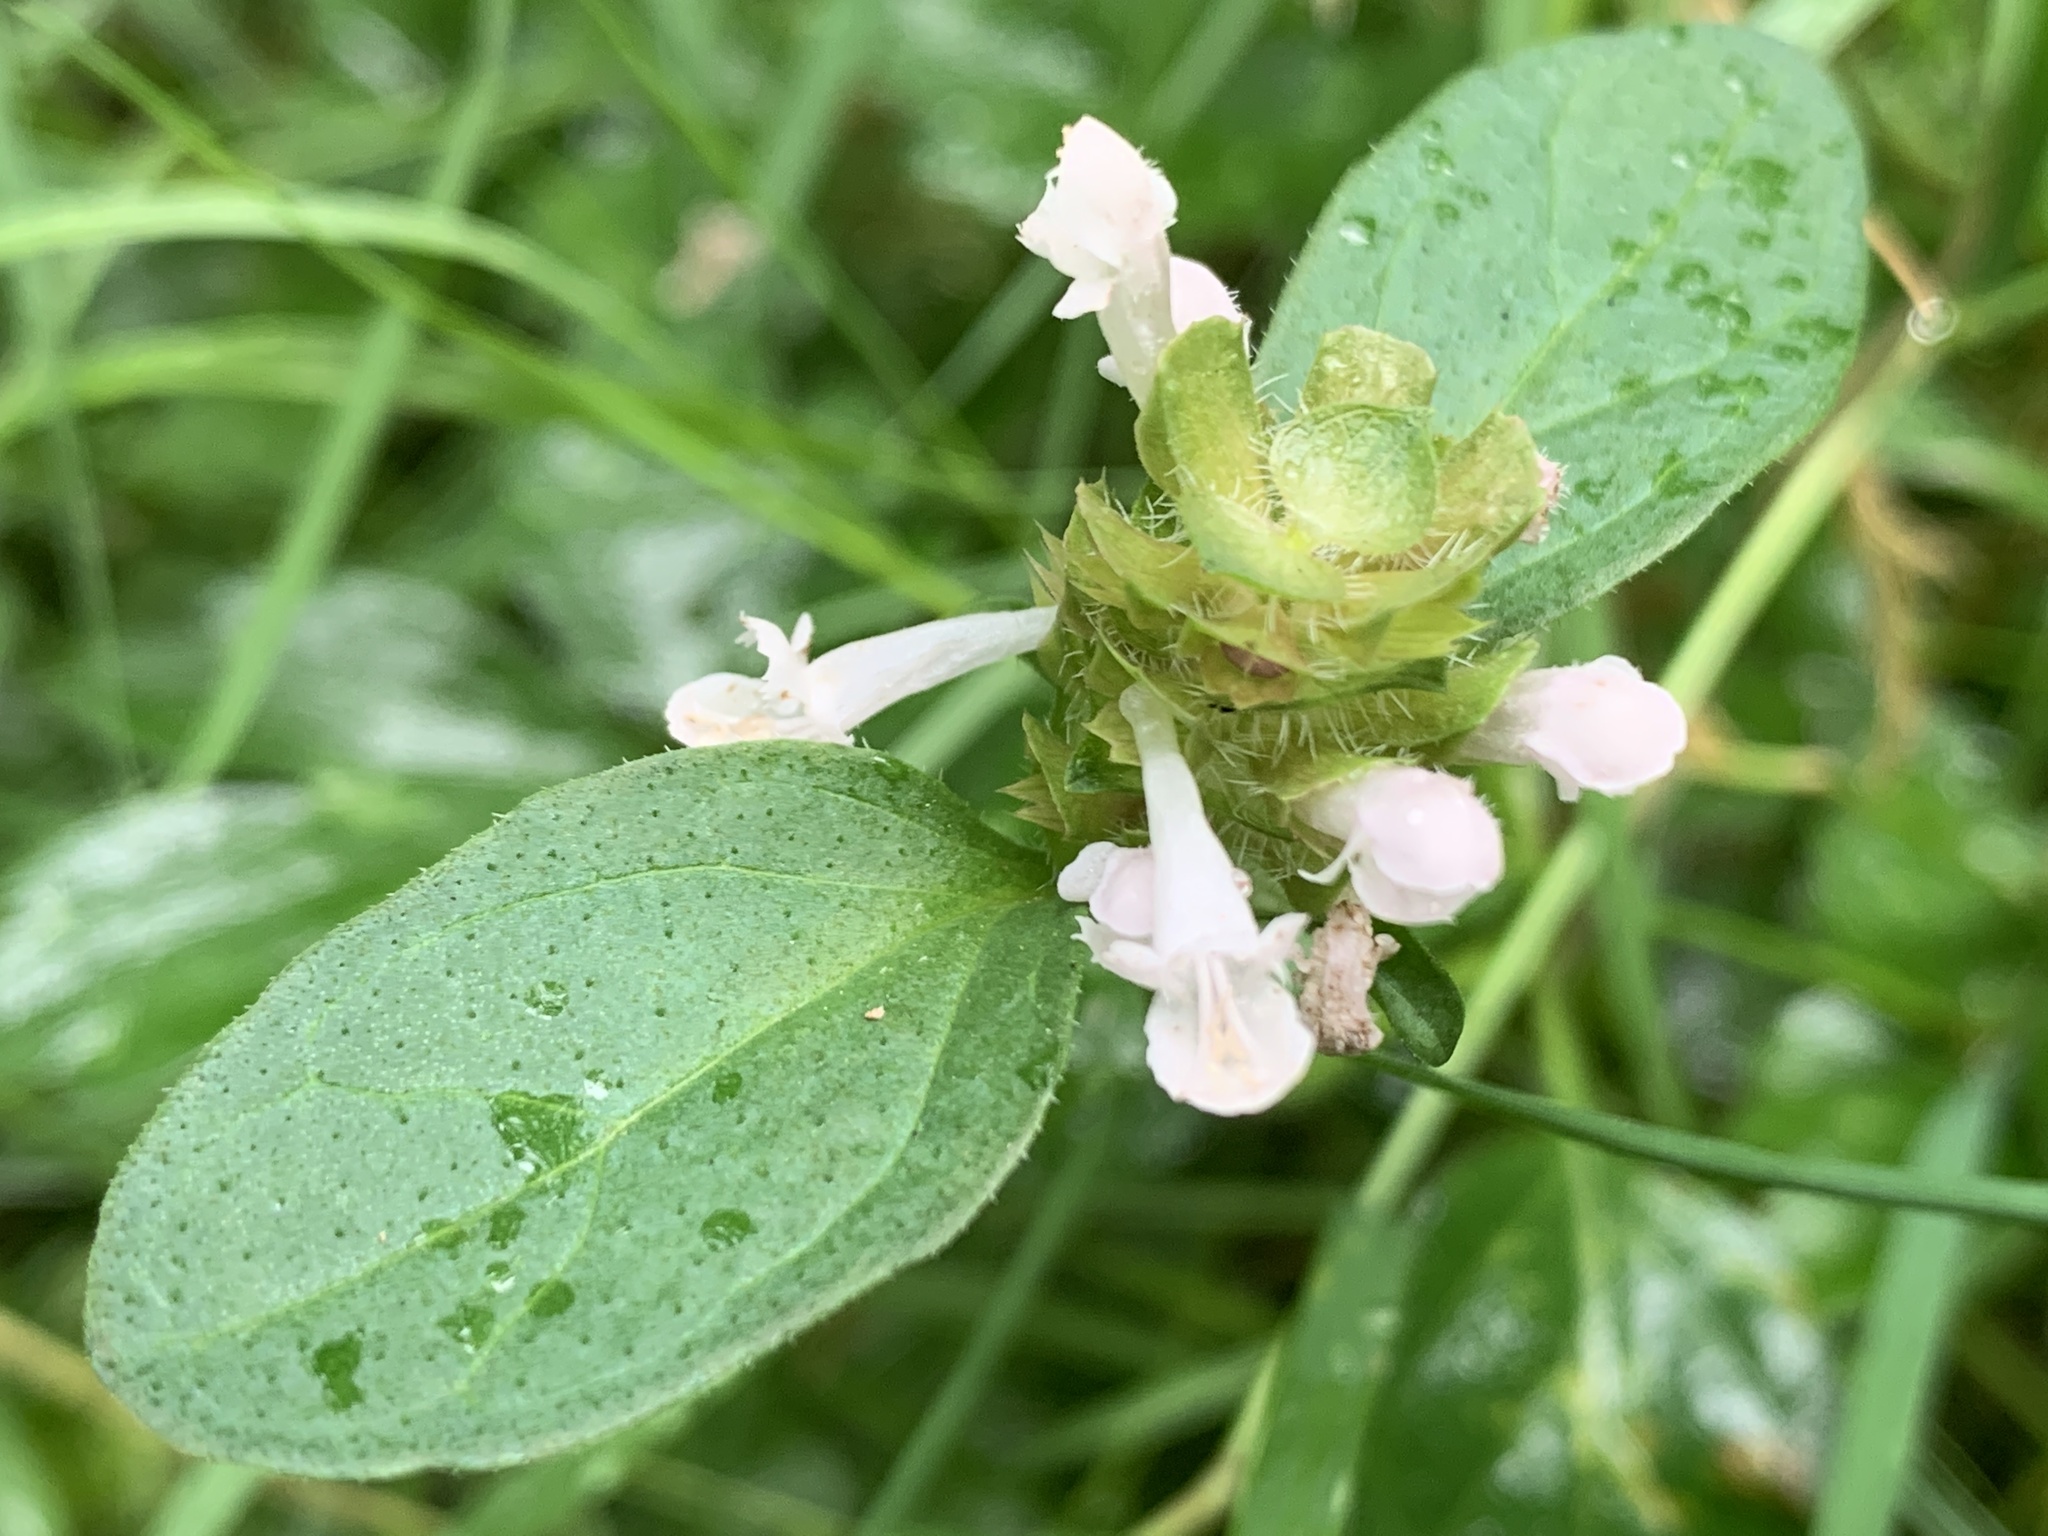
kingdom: Plantae
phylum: Tracheophyta
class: Magnoliopsida
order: Lamiales
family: Lamiaceae
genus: Prunella
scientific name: Prunella vulgaris
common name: Heal-all
